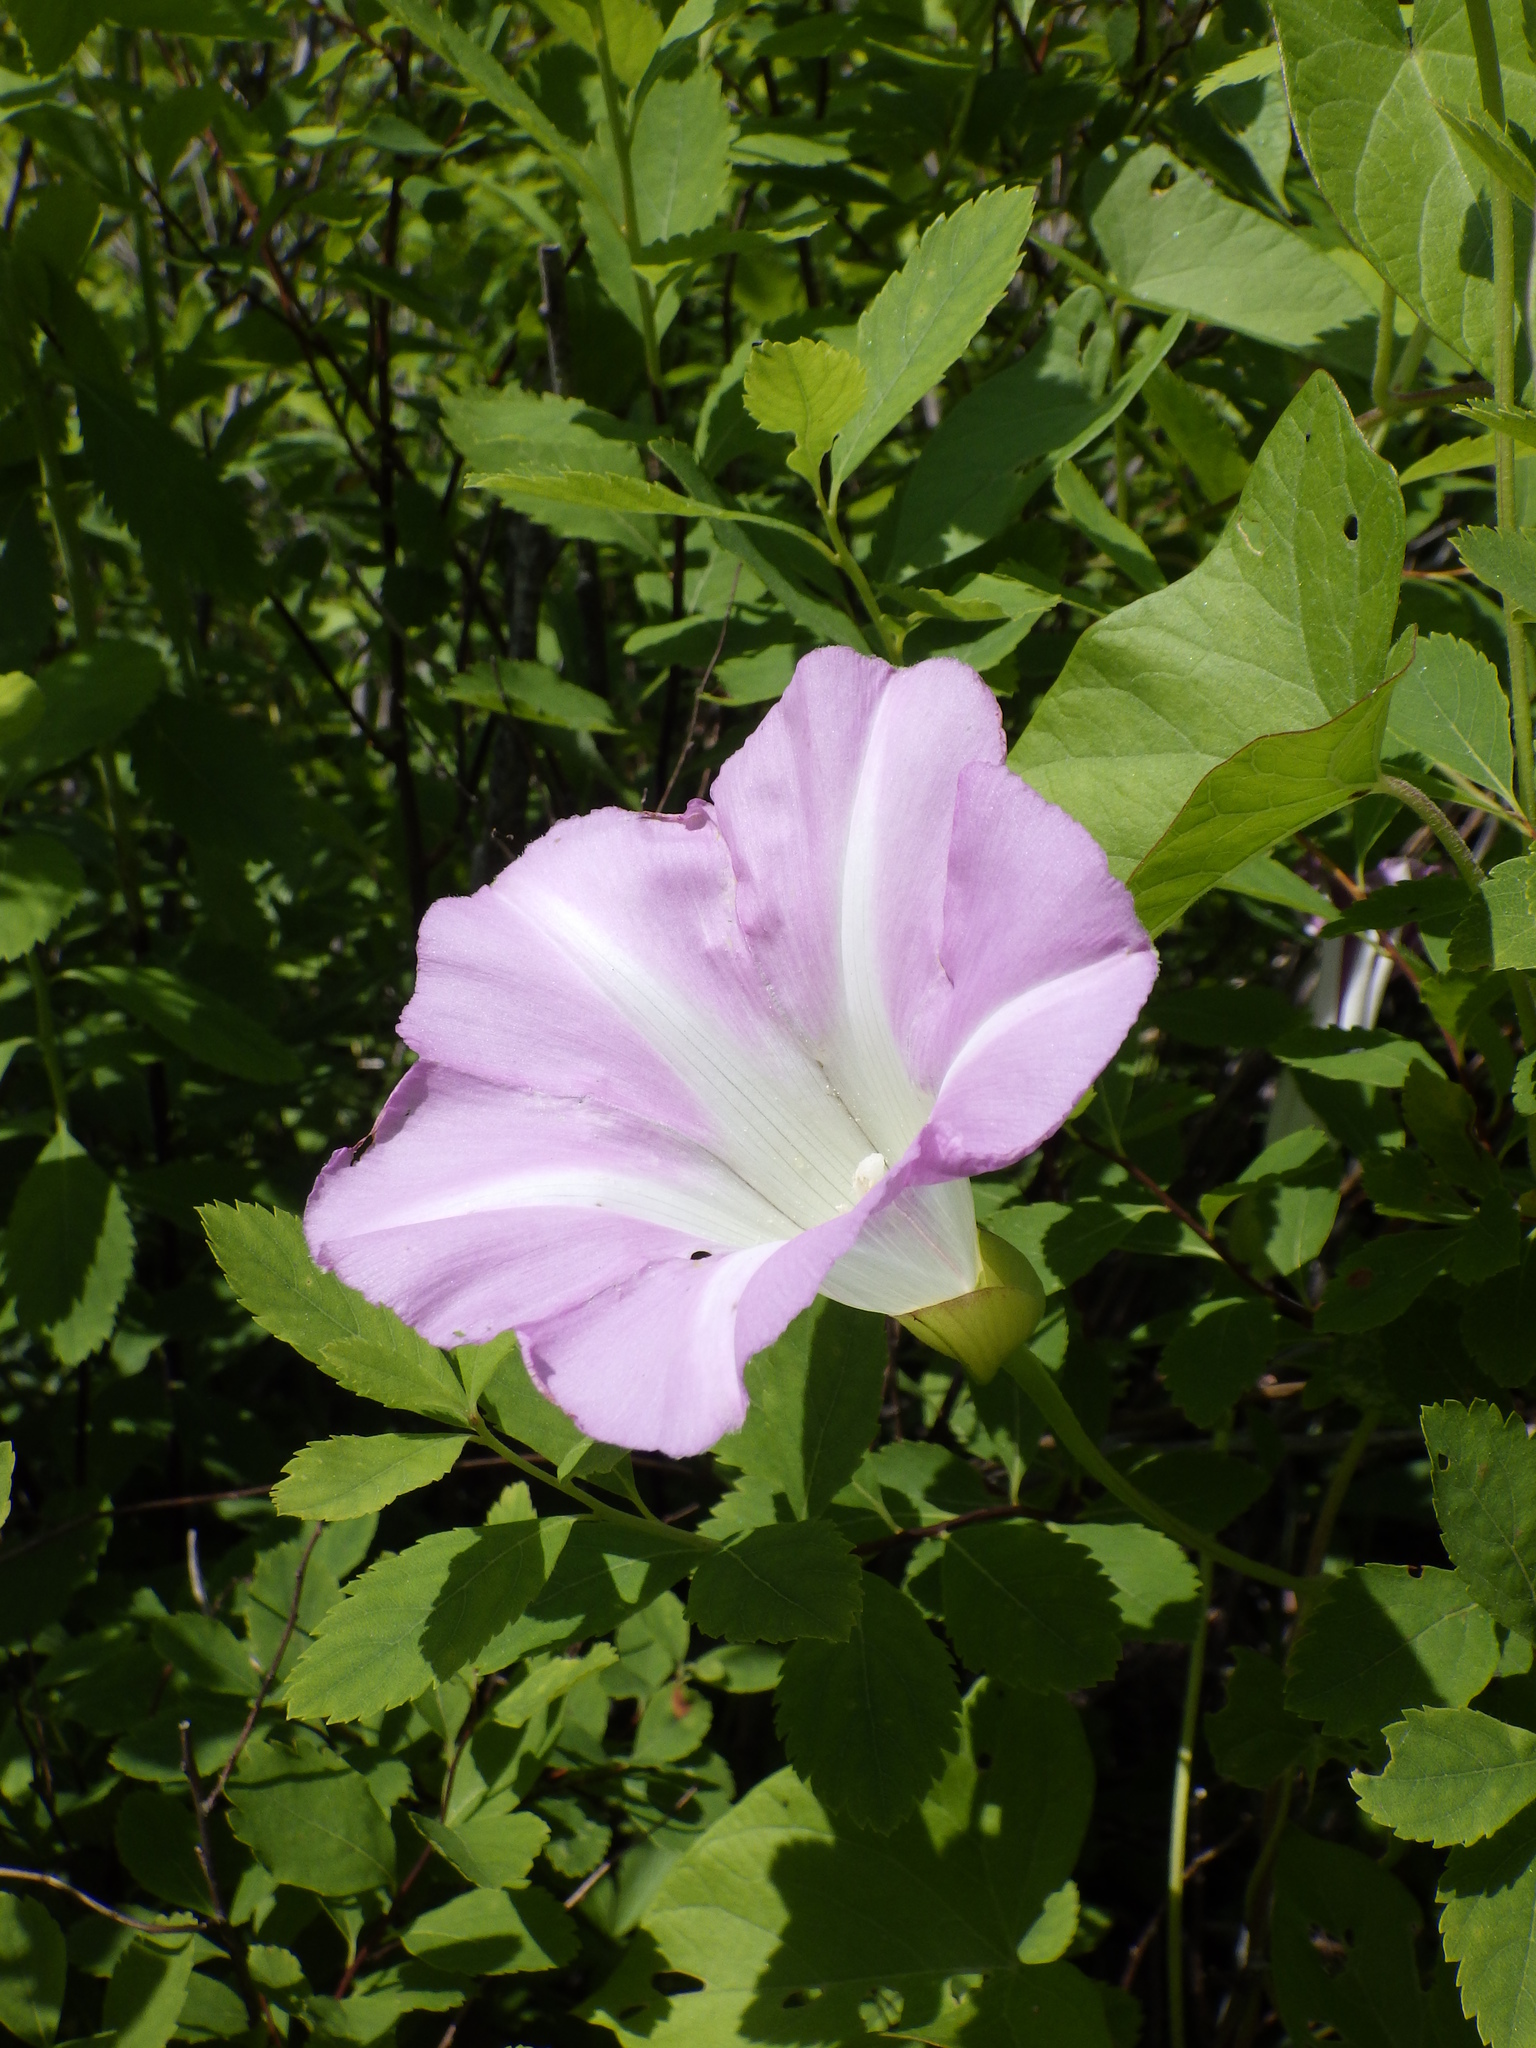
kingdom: Plantae
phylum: Tracheophyta
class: Magnoliopsida
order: Solanales
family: Convolvulaceae
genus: Calystegia
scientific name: Calystegia sepium
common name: Hedge bindweed
